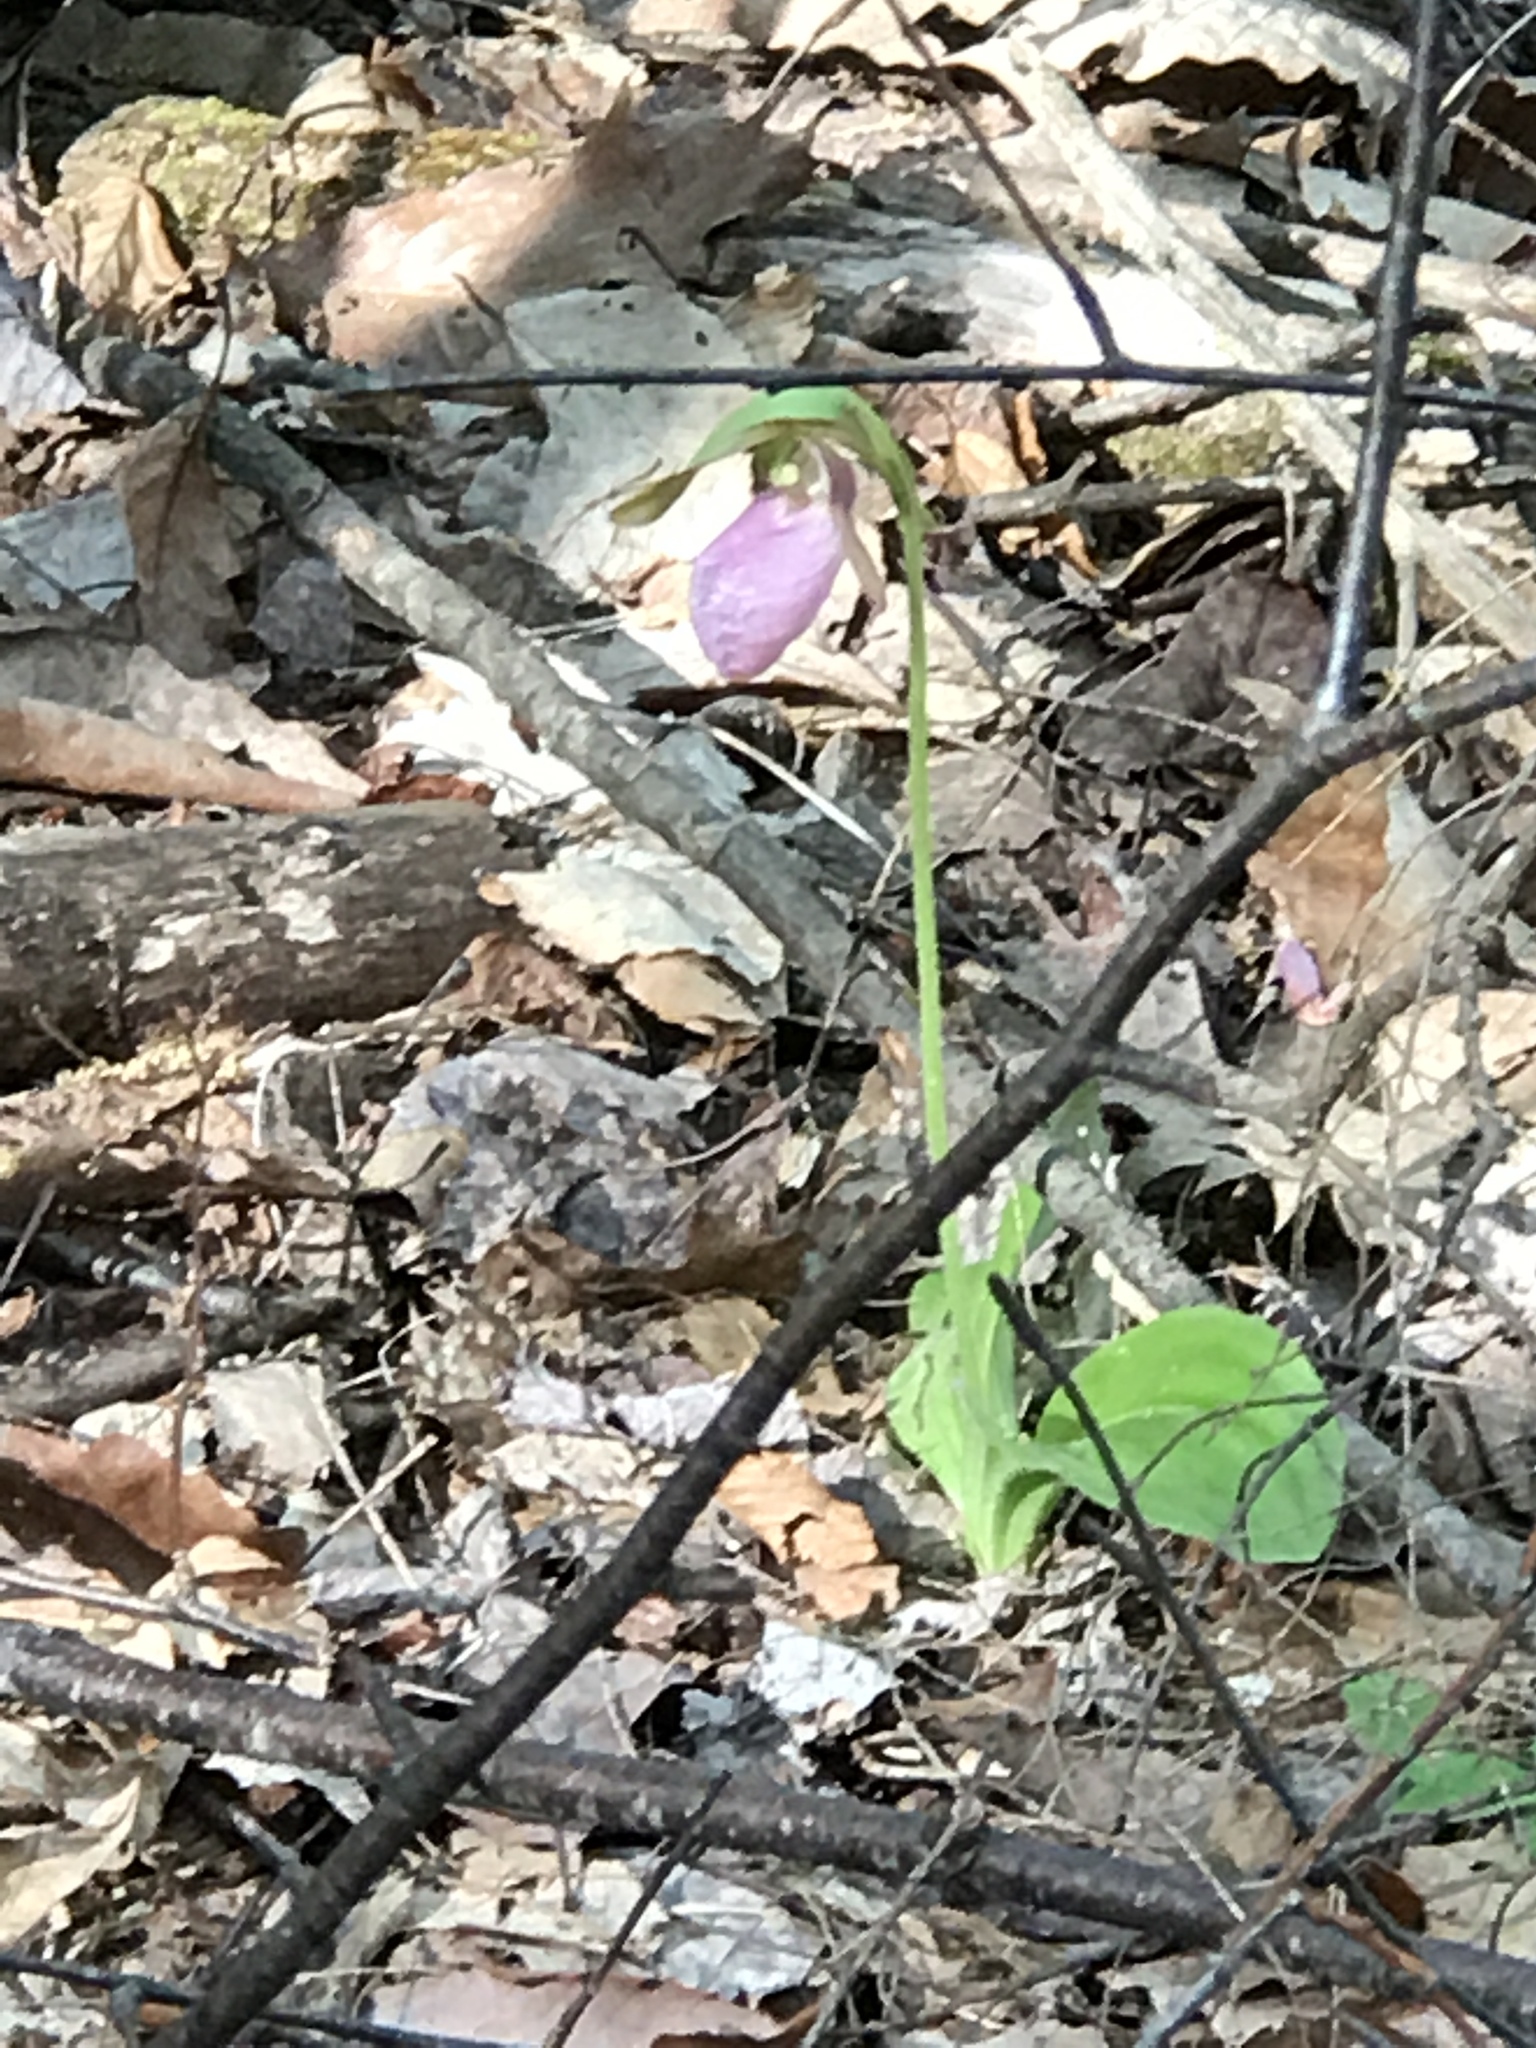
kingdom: Plantae
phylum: Tracheophyta
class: Liliopsida
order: Asparagales
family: Orchidaceae
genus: Cypripedium
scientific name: Cypripedium acaule
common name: Pink lady's-slipper
